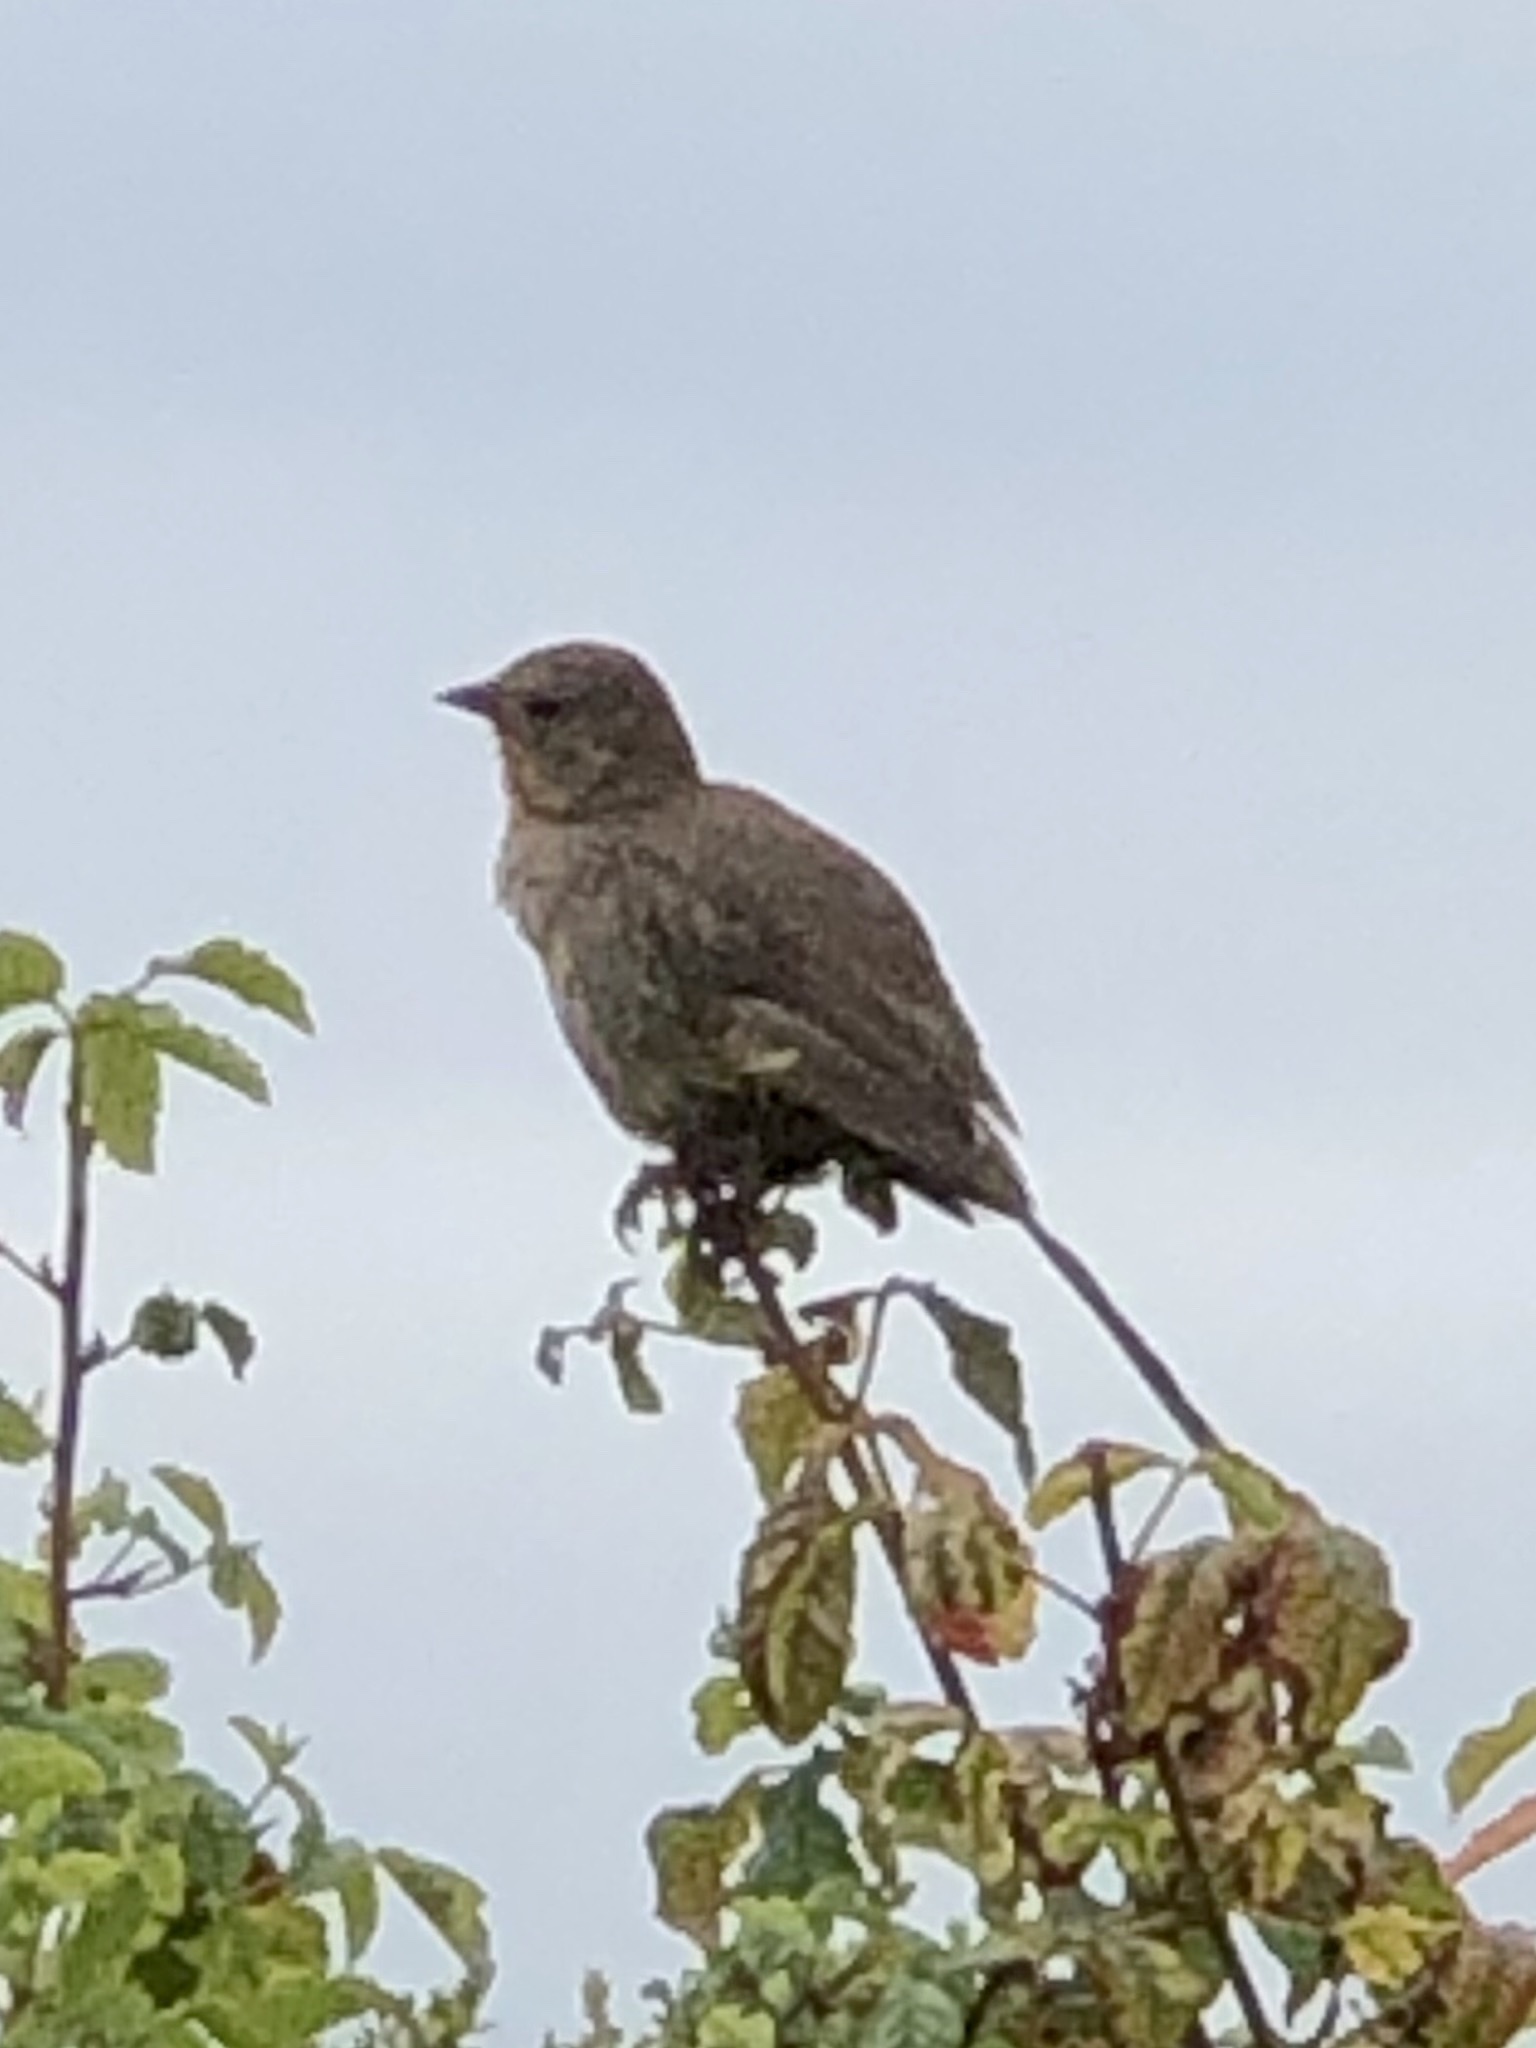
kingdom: Animalia
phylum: Chordata
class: Aves
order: Passeriformes
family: Passerellidae
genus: Melozone
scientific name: Melozone crissalis
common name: California towhee
